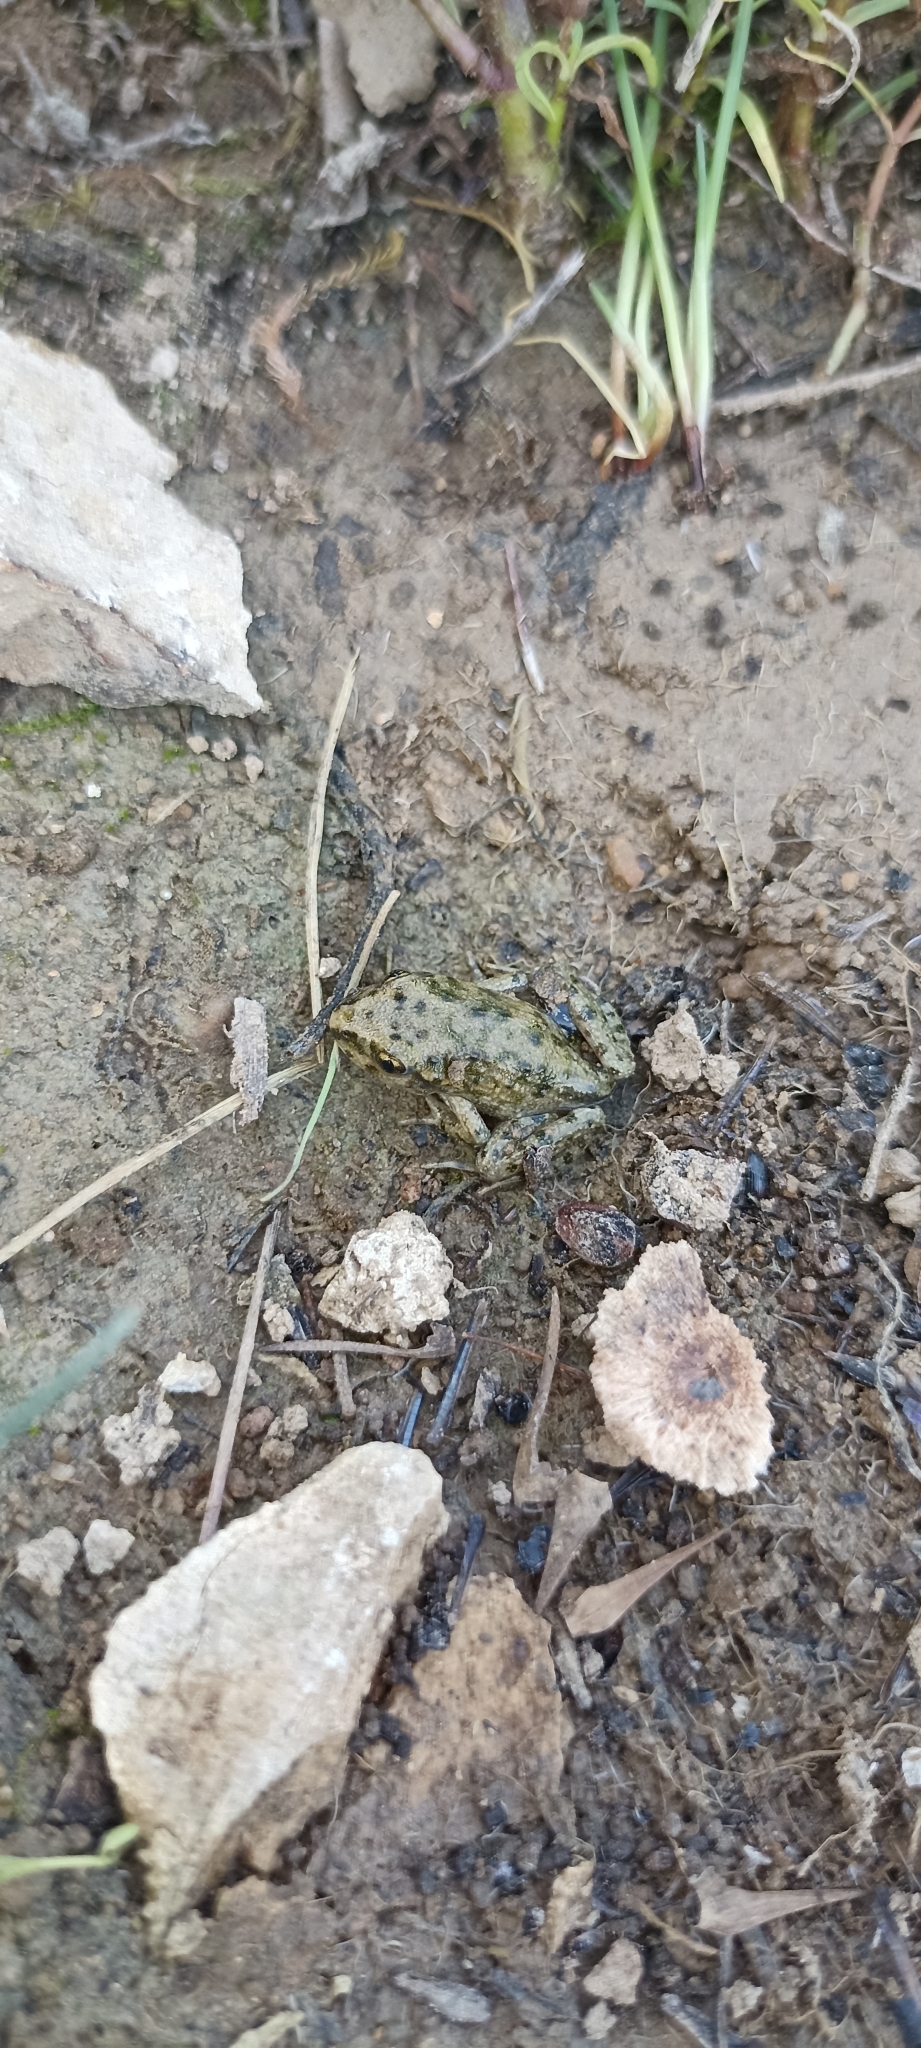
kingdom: Animalia
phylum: Chordata
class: Amphibia
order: Anura
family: Pelodytidae
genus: Pelodytes
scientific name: Pelodytes punctatus
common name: Parsley frog
